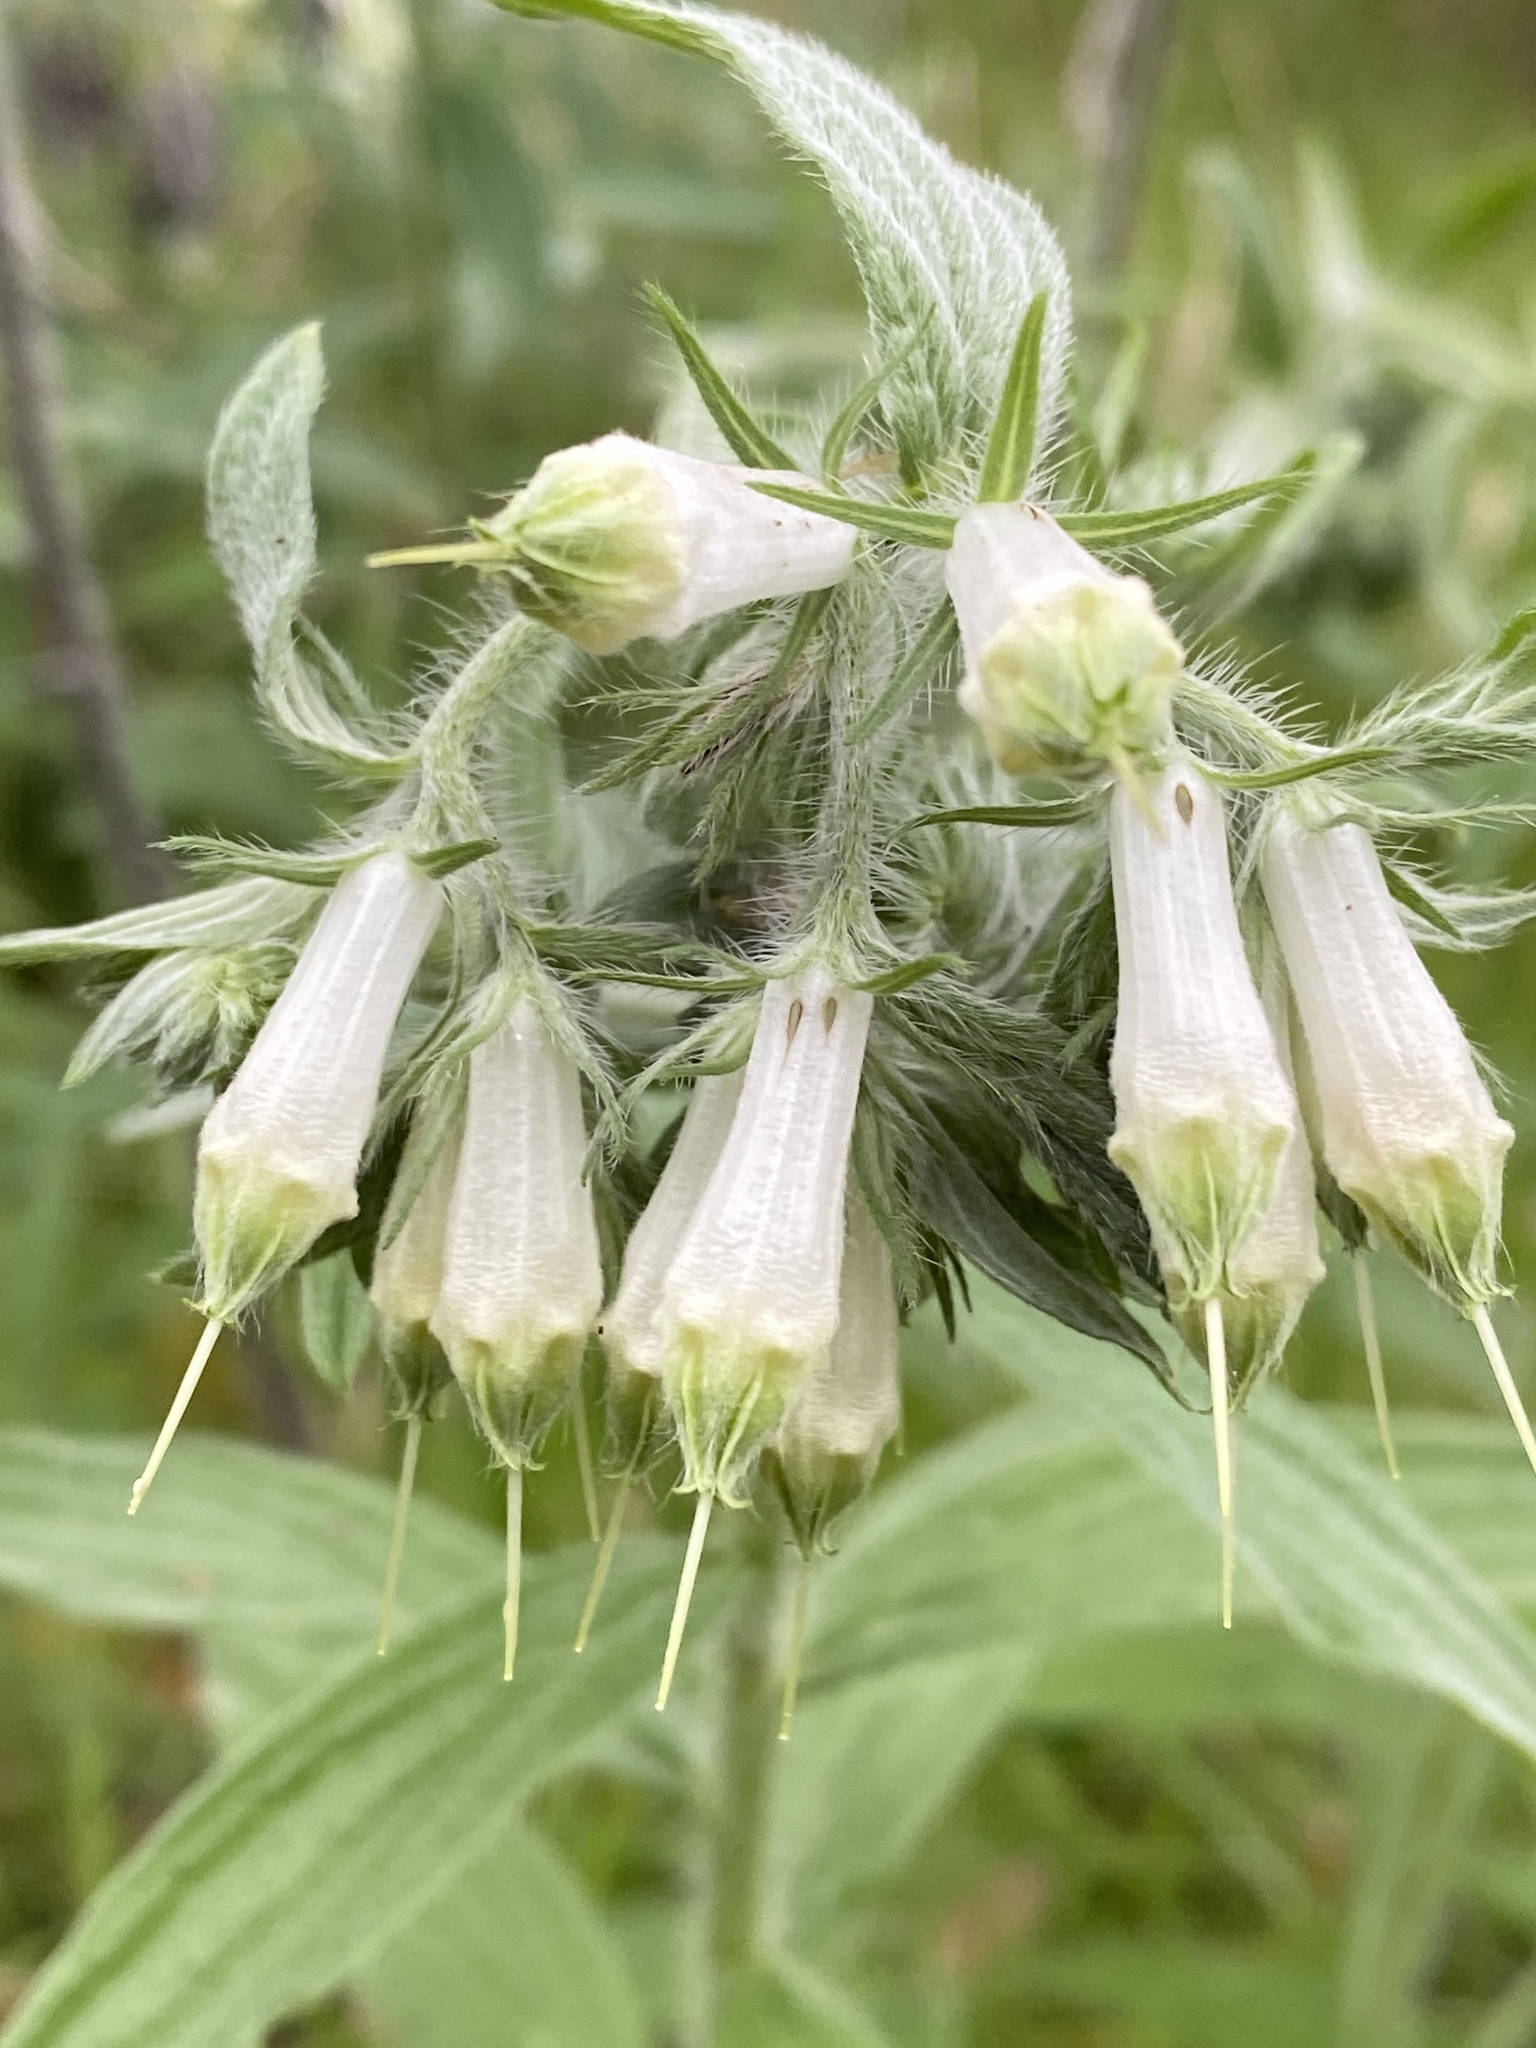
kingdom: Plantae
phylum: Tracheophyta
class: Magnoliopsida
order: Boraginales
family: Boraginaceae
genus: Lithospermum
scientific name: Lithospermum caroliniense
